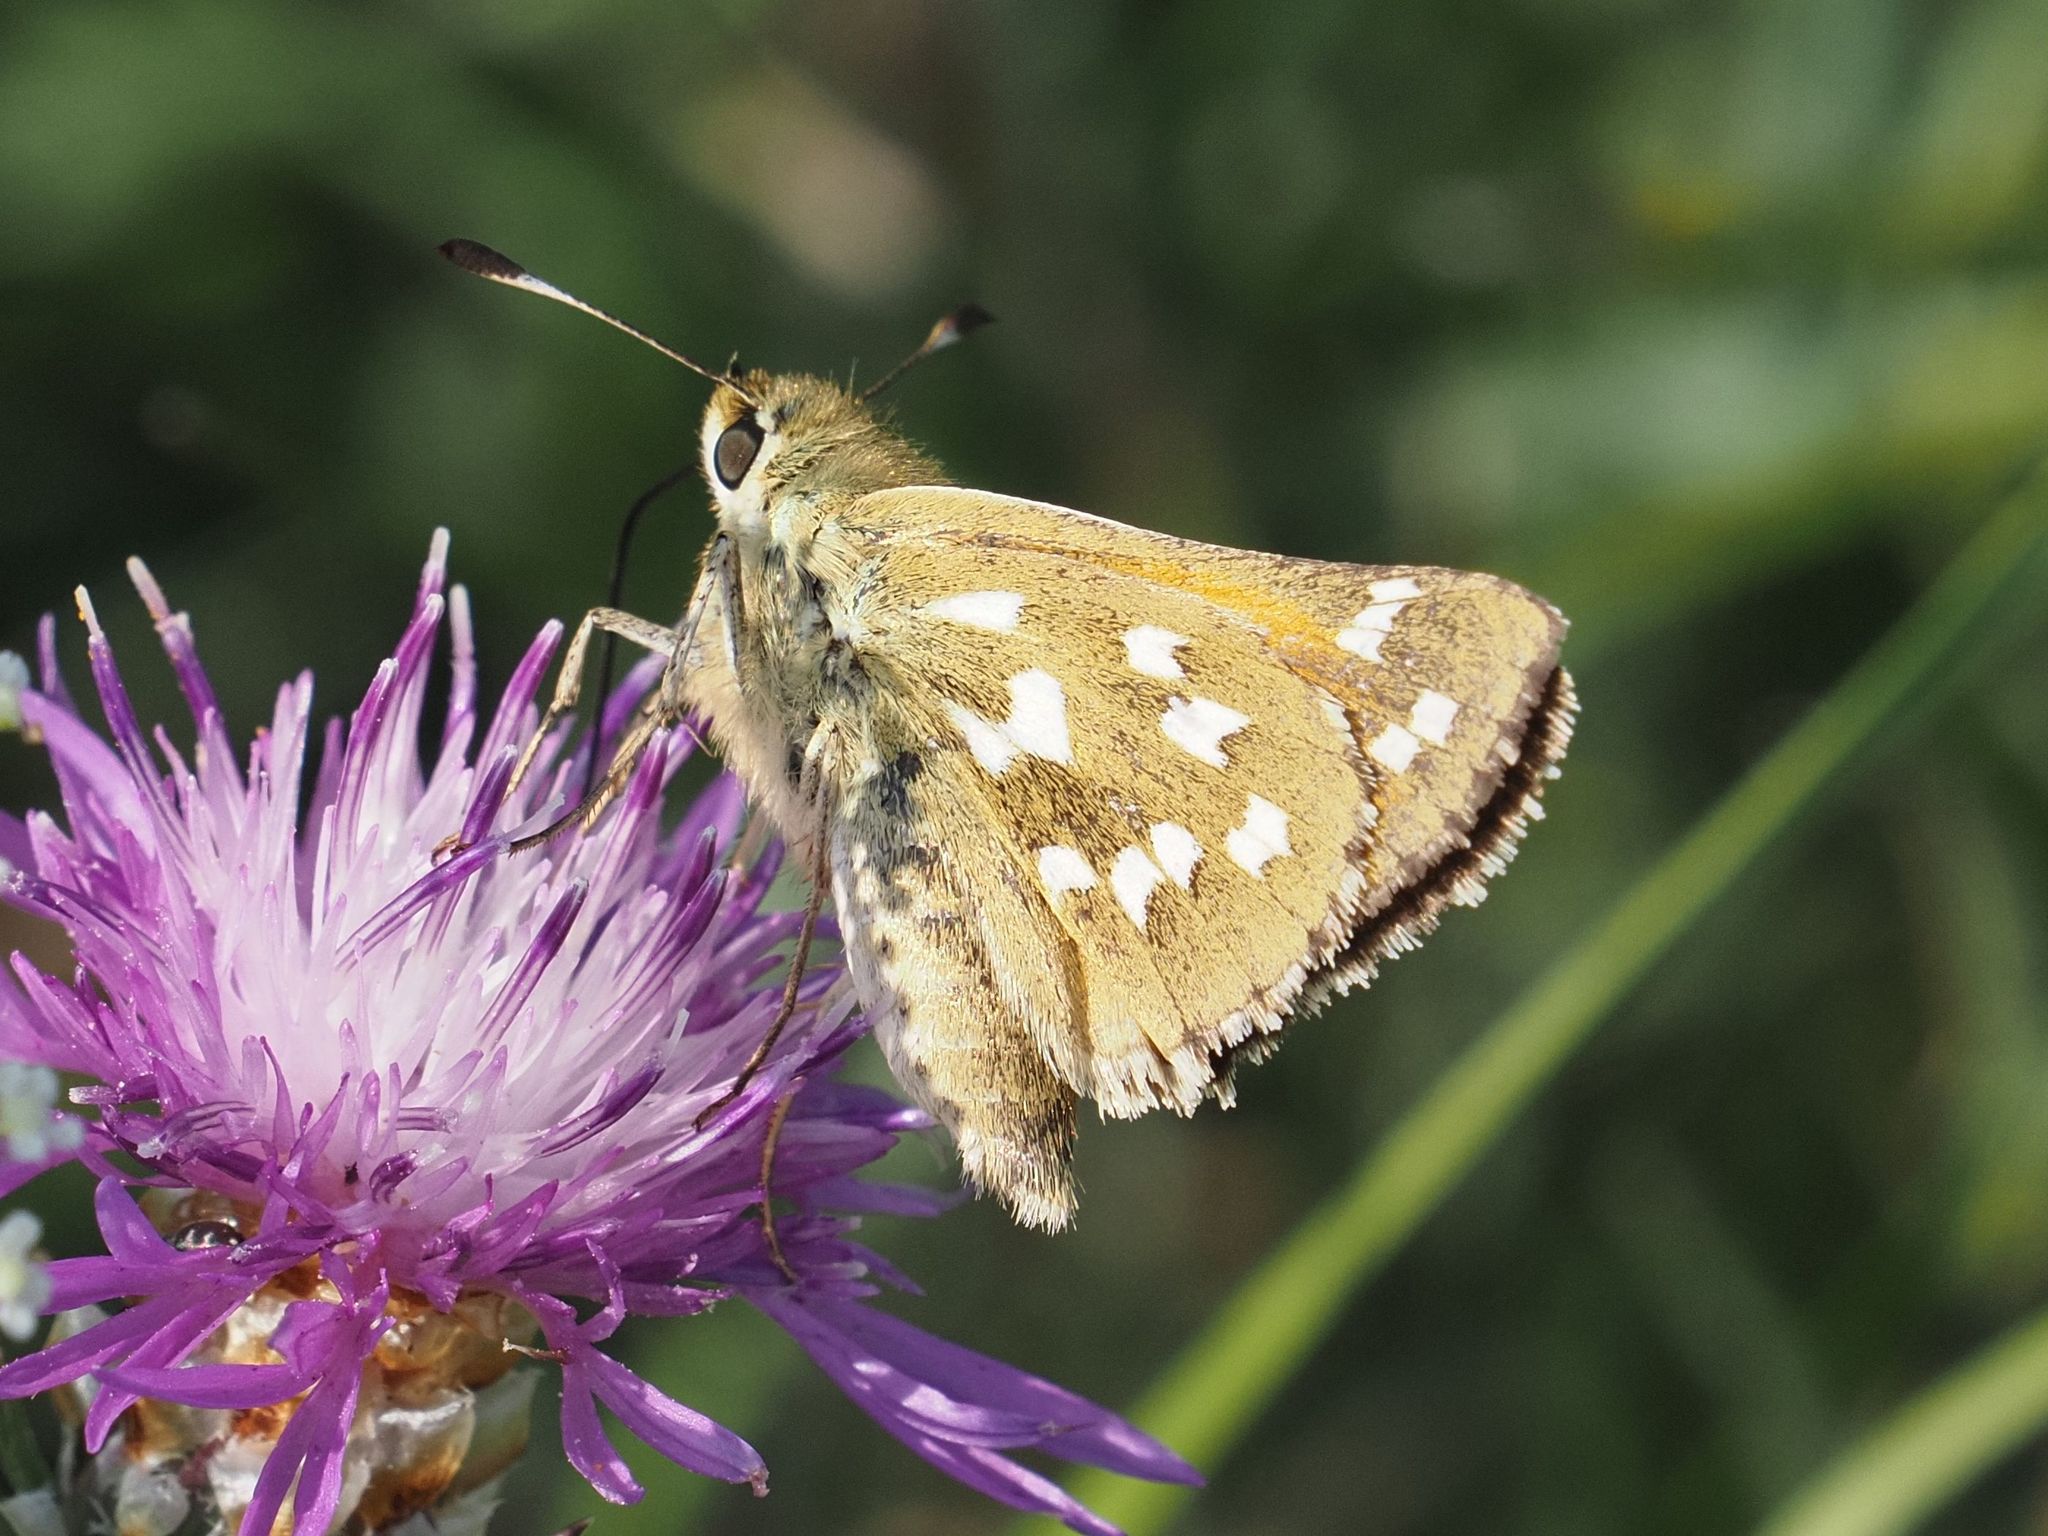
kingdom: Animalia
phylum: Arthropoda
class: Insecta
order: Lepidoptera
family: Hesperiidae
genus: Hesperia
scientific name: Hesperia comma
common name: Common branded skipper
